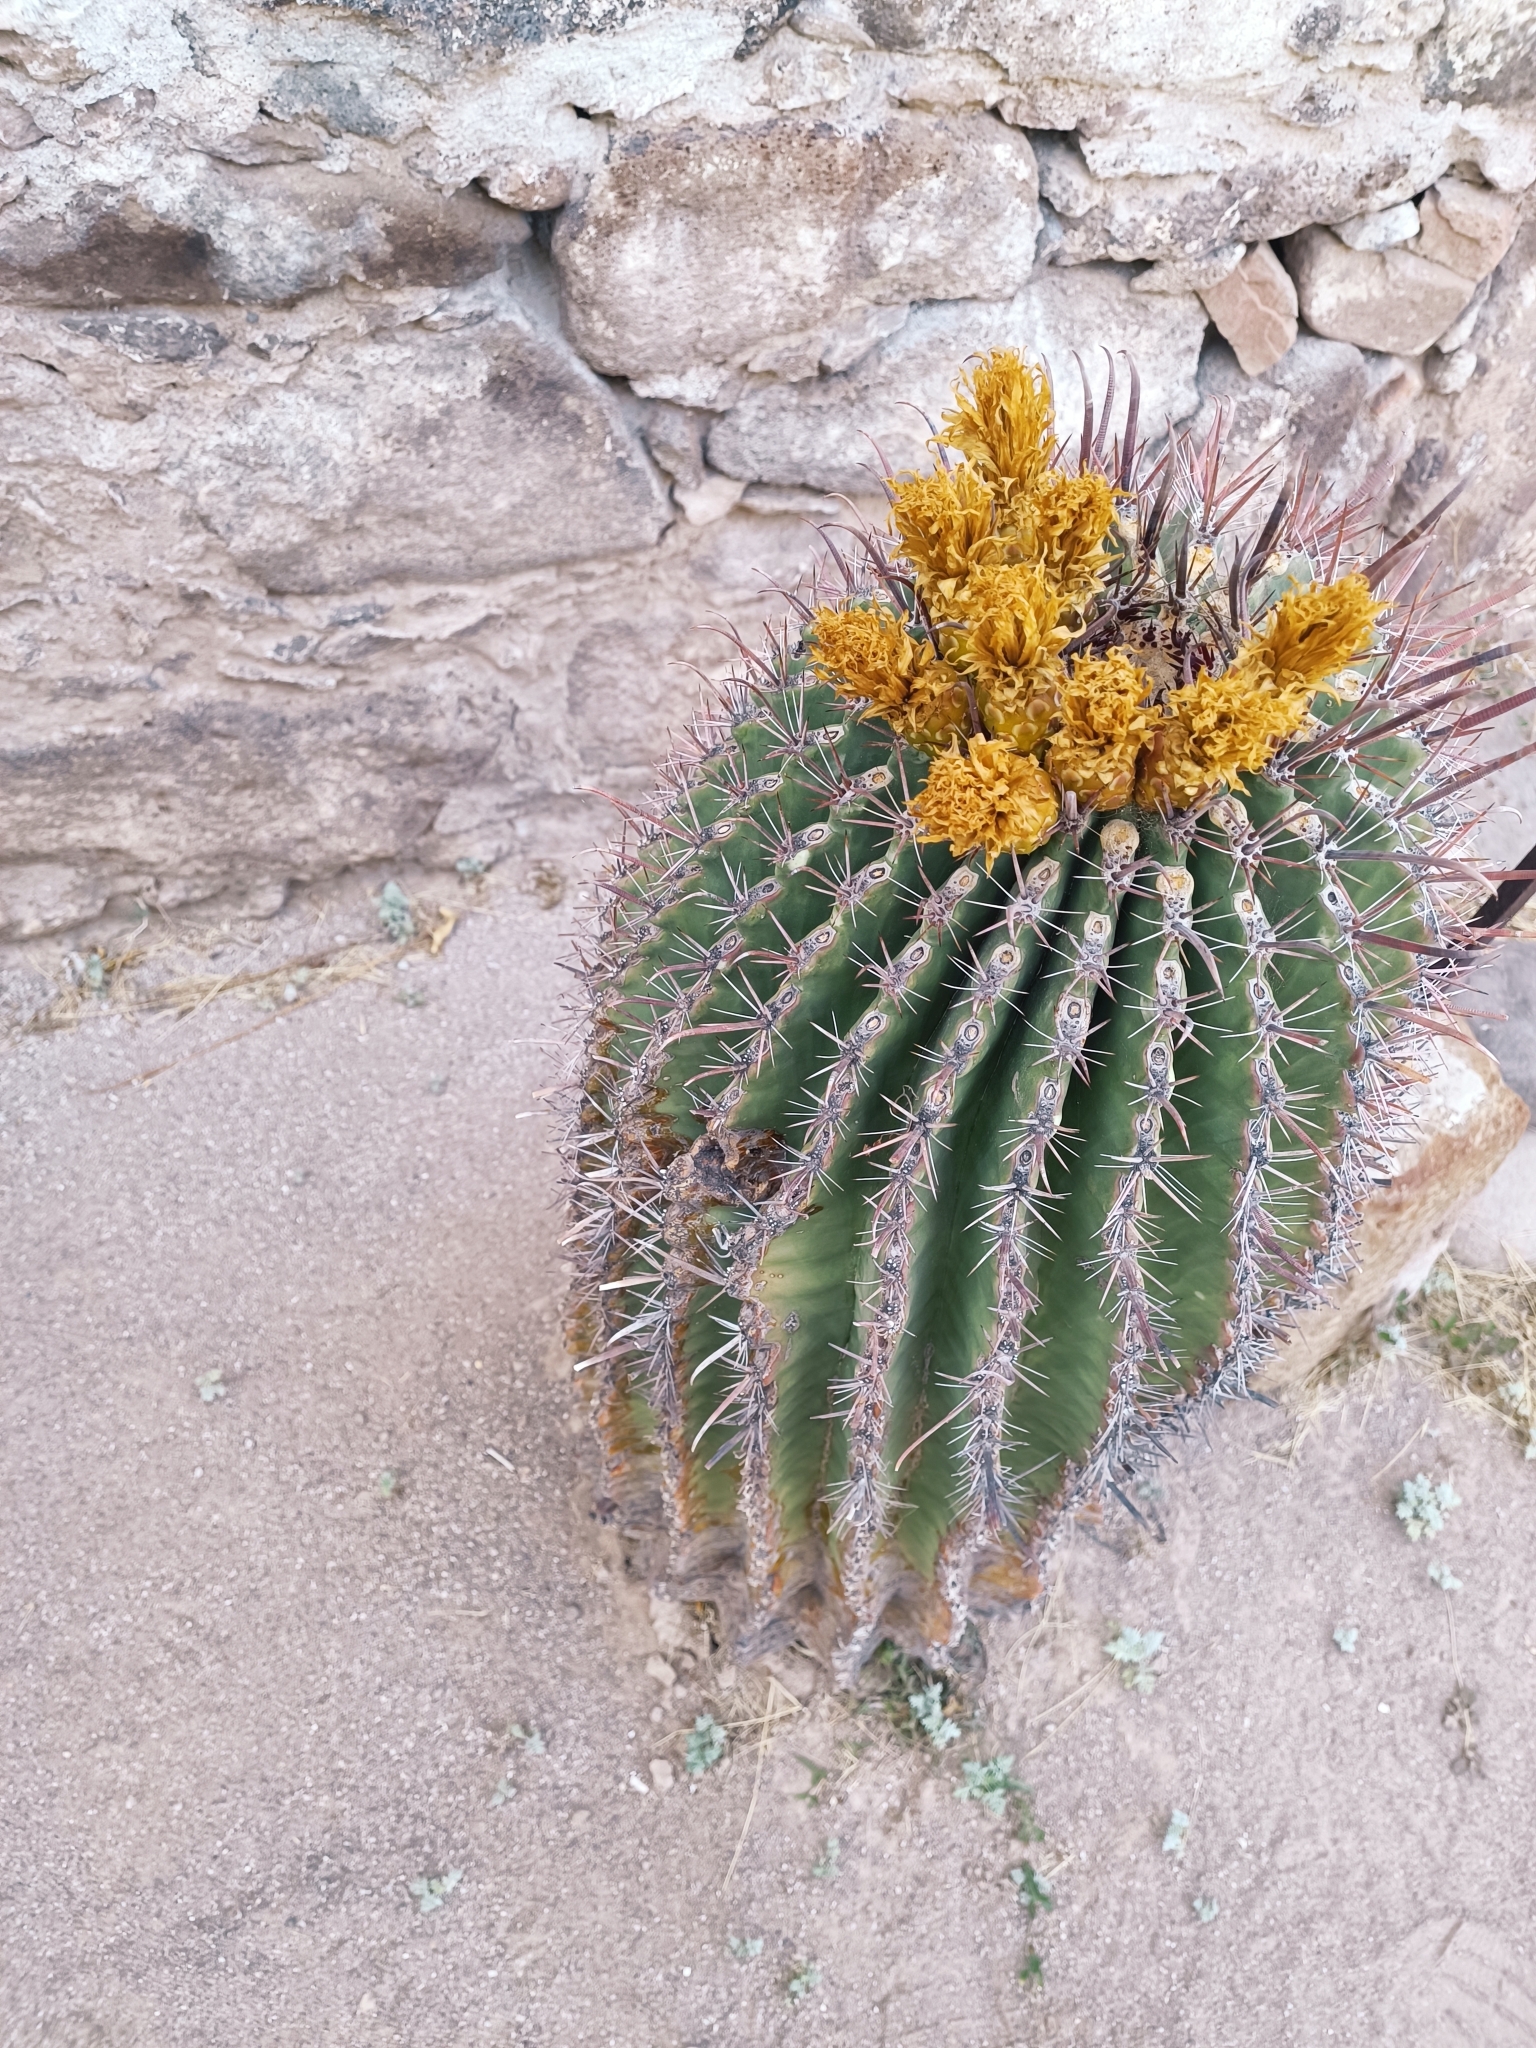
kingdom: Plantae
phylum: Tracheophyta
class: Magnoliopsida
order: Caryophyllales
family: Cactaceae
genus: Ferocactus
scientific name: Ferocactus townsendianus
